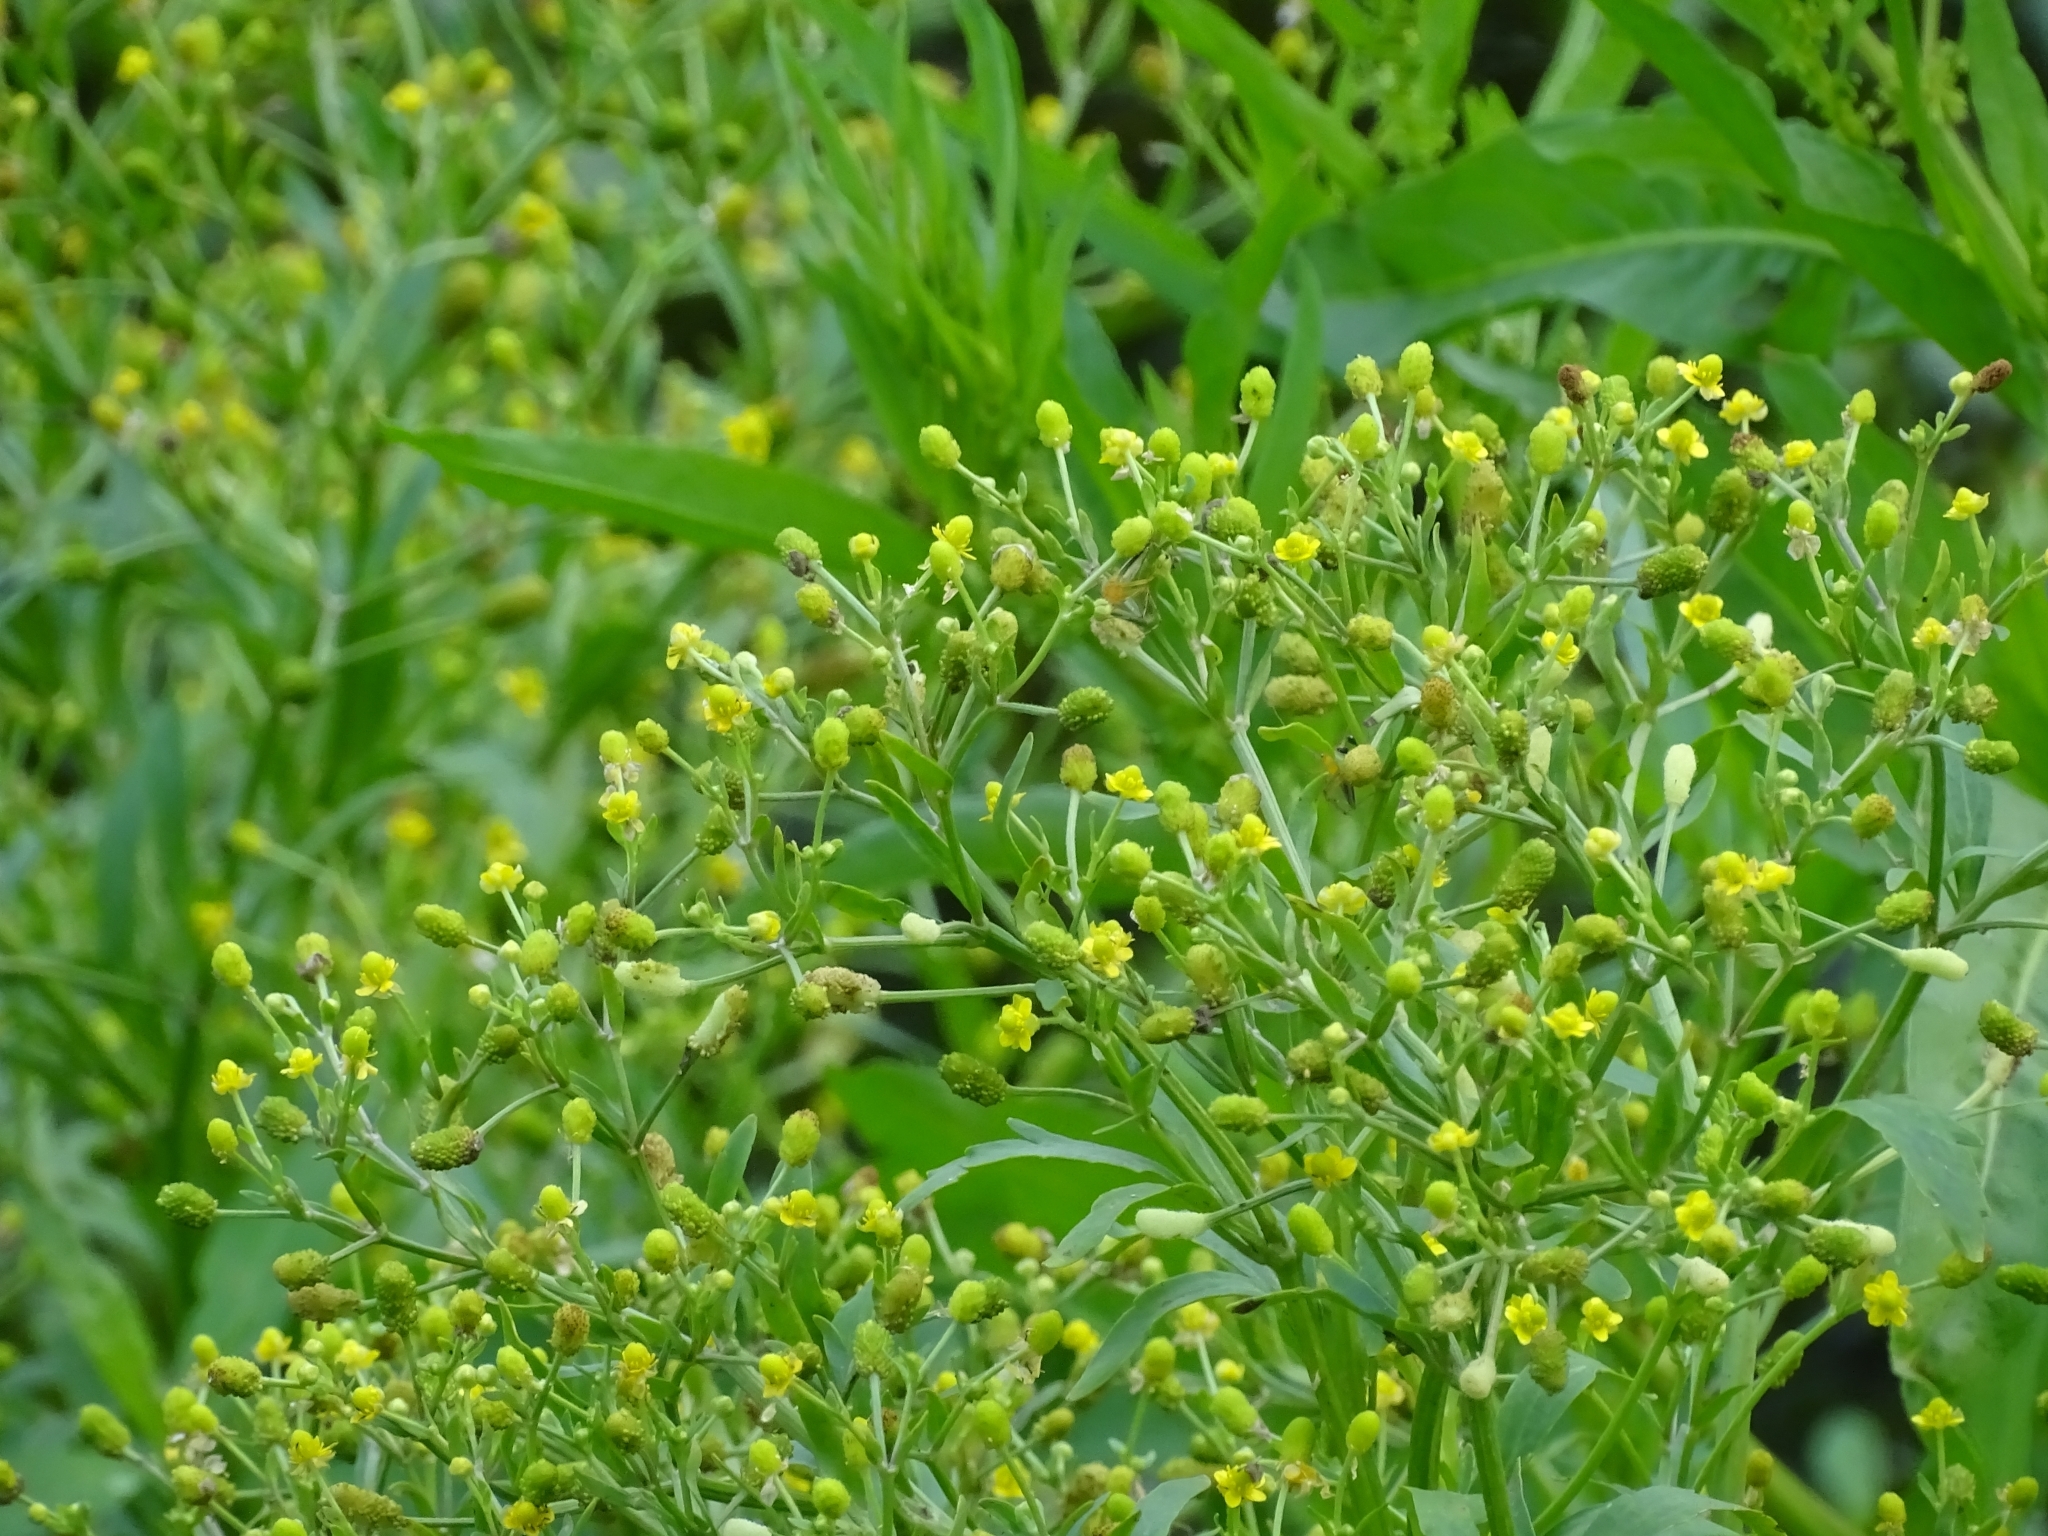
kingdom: Plantae
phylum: Tracheophyta
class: Magnoliopsida
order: Ranunculales
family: Ranunculaceae
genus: Ranunculus
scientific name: Ranunculus sceleratus
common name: Celery-leaved buttercup
